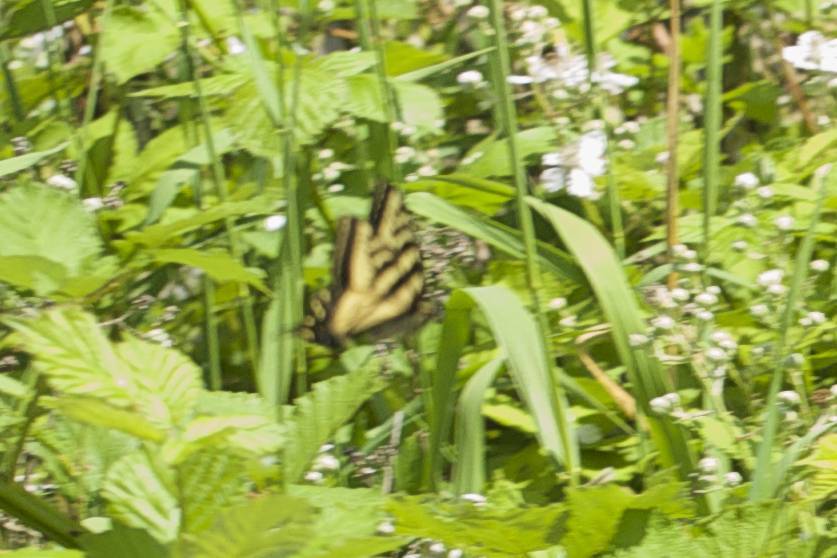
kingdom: Animalia
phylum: Arthropoda
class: Insecta
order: Lepidoptera
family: Papilionidae
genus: Papilio
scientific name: Papilio rutulus
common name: Western tiger swallowtail
